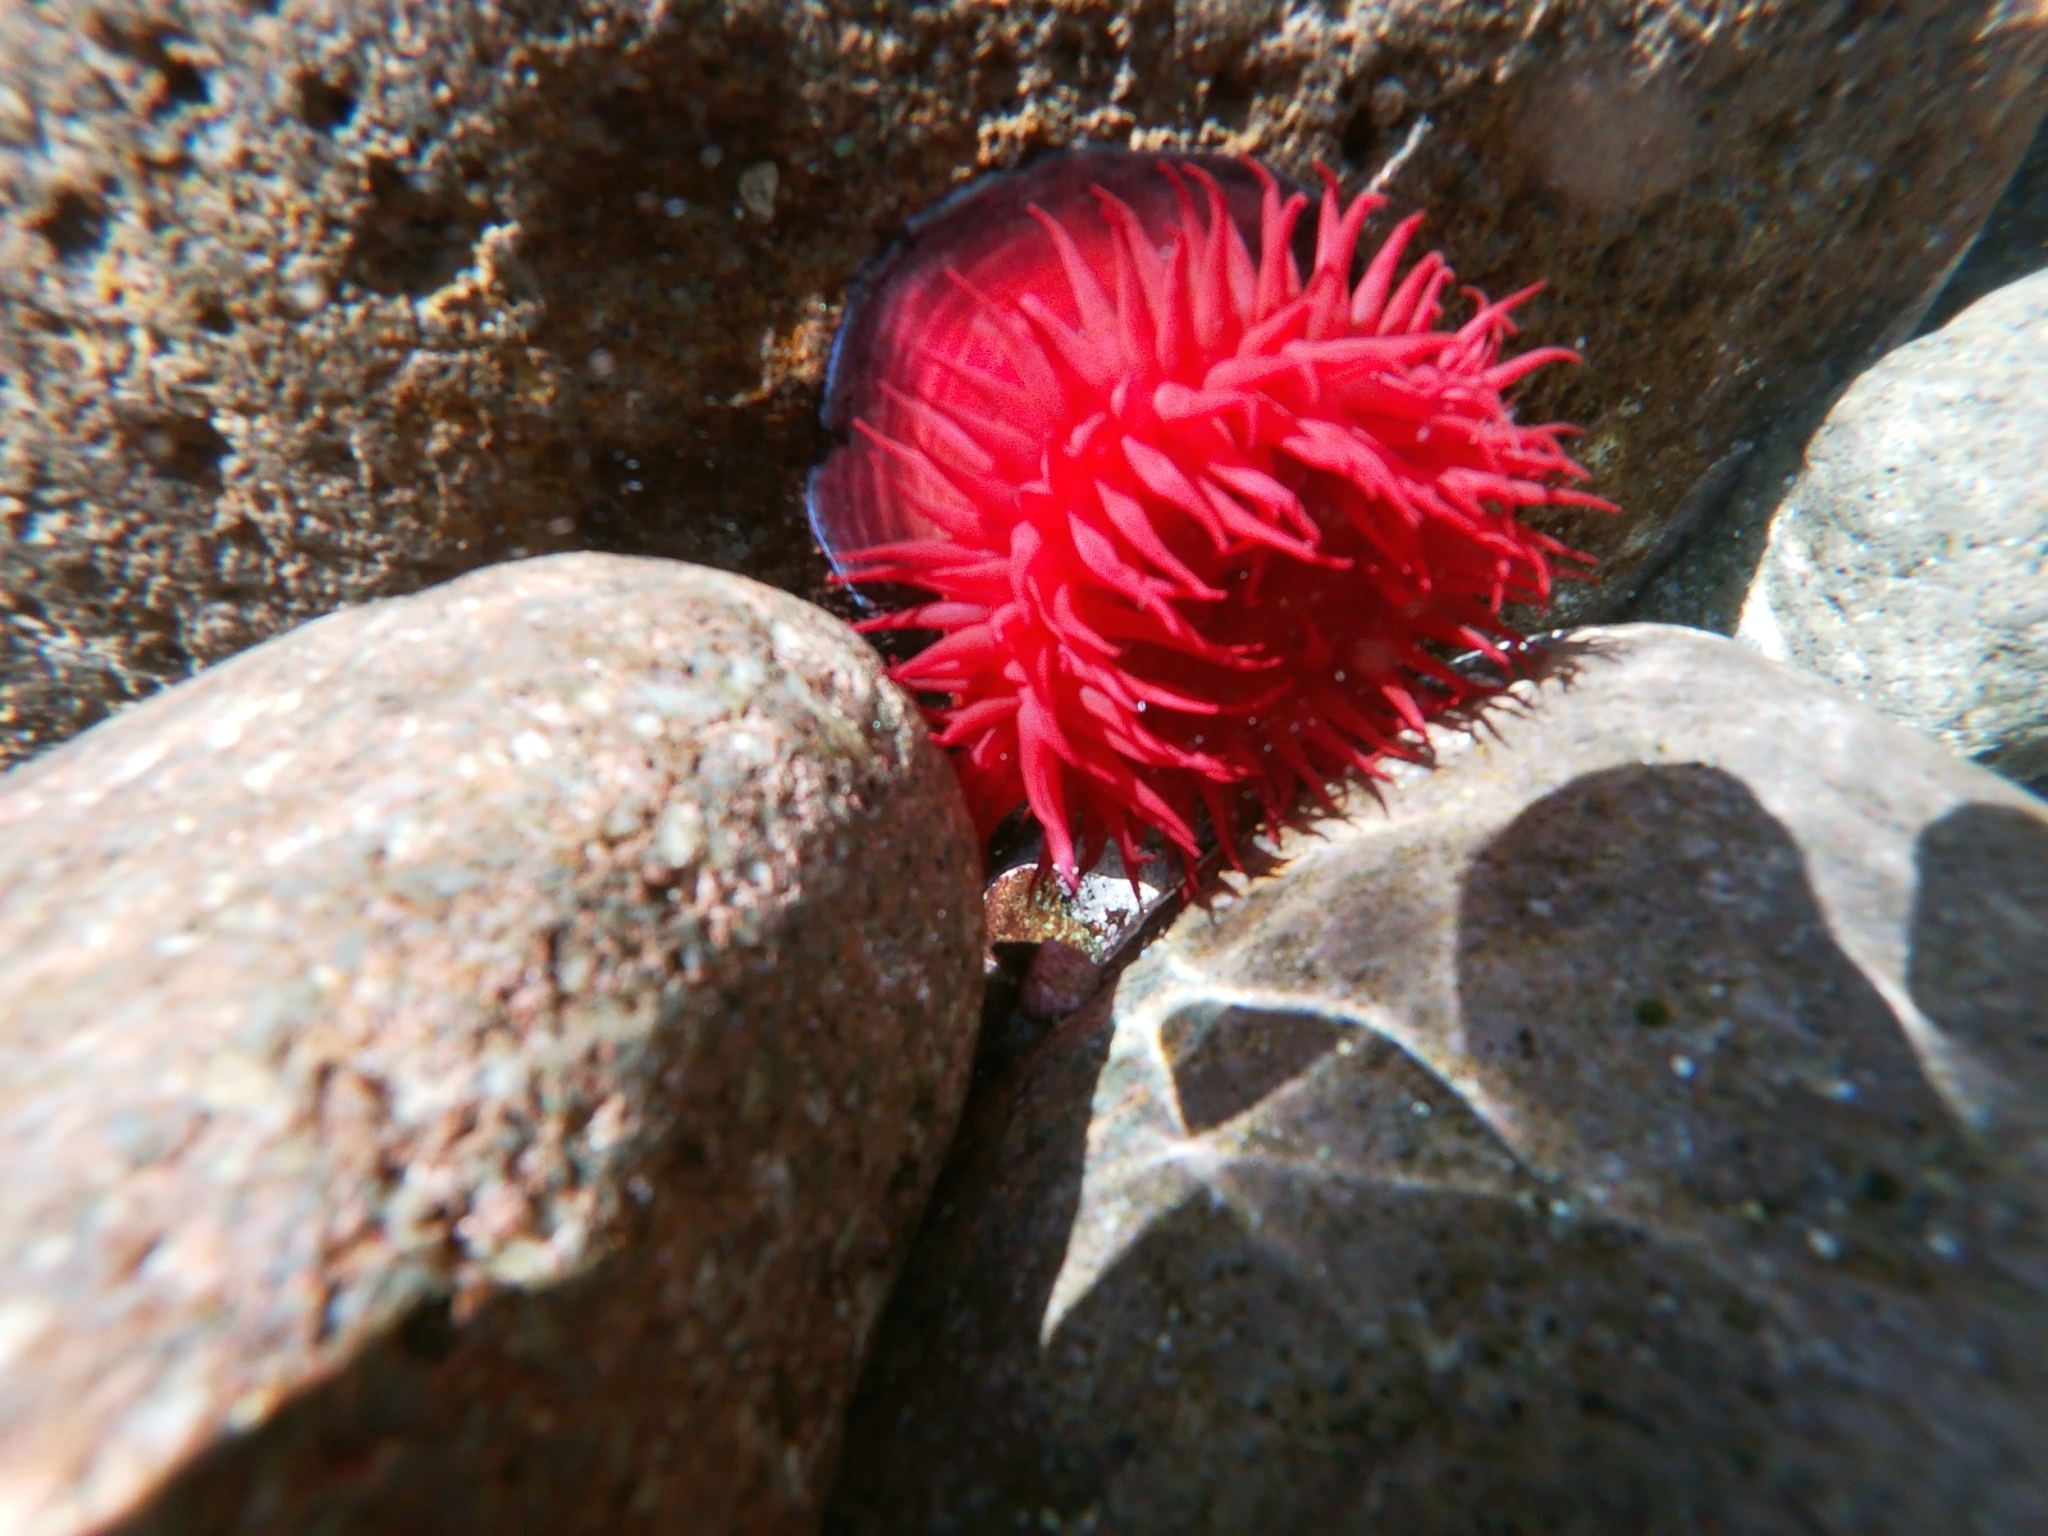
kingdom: Animalia
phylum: Cnidaria
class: Anthozoa
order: Actiniaria
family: Actiniidae
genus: Actinia
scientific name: Actinia mediterranea
